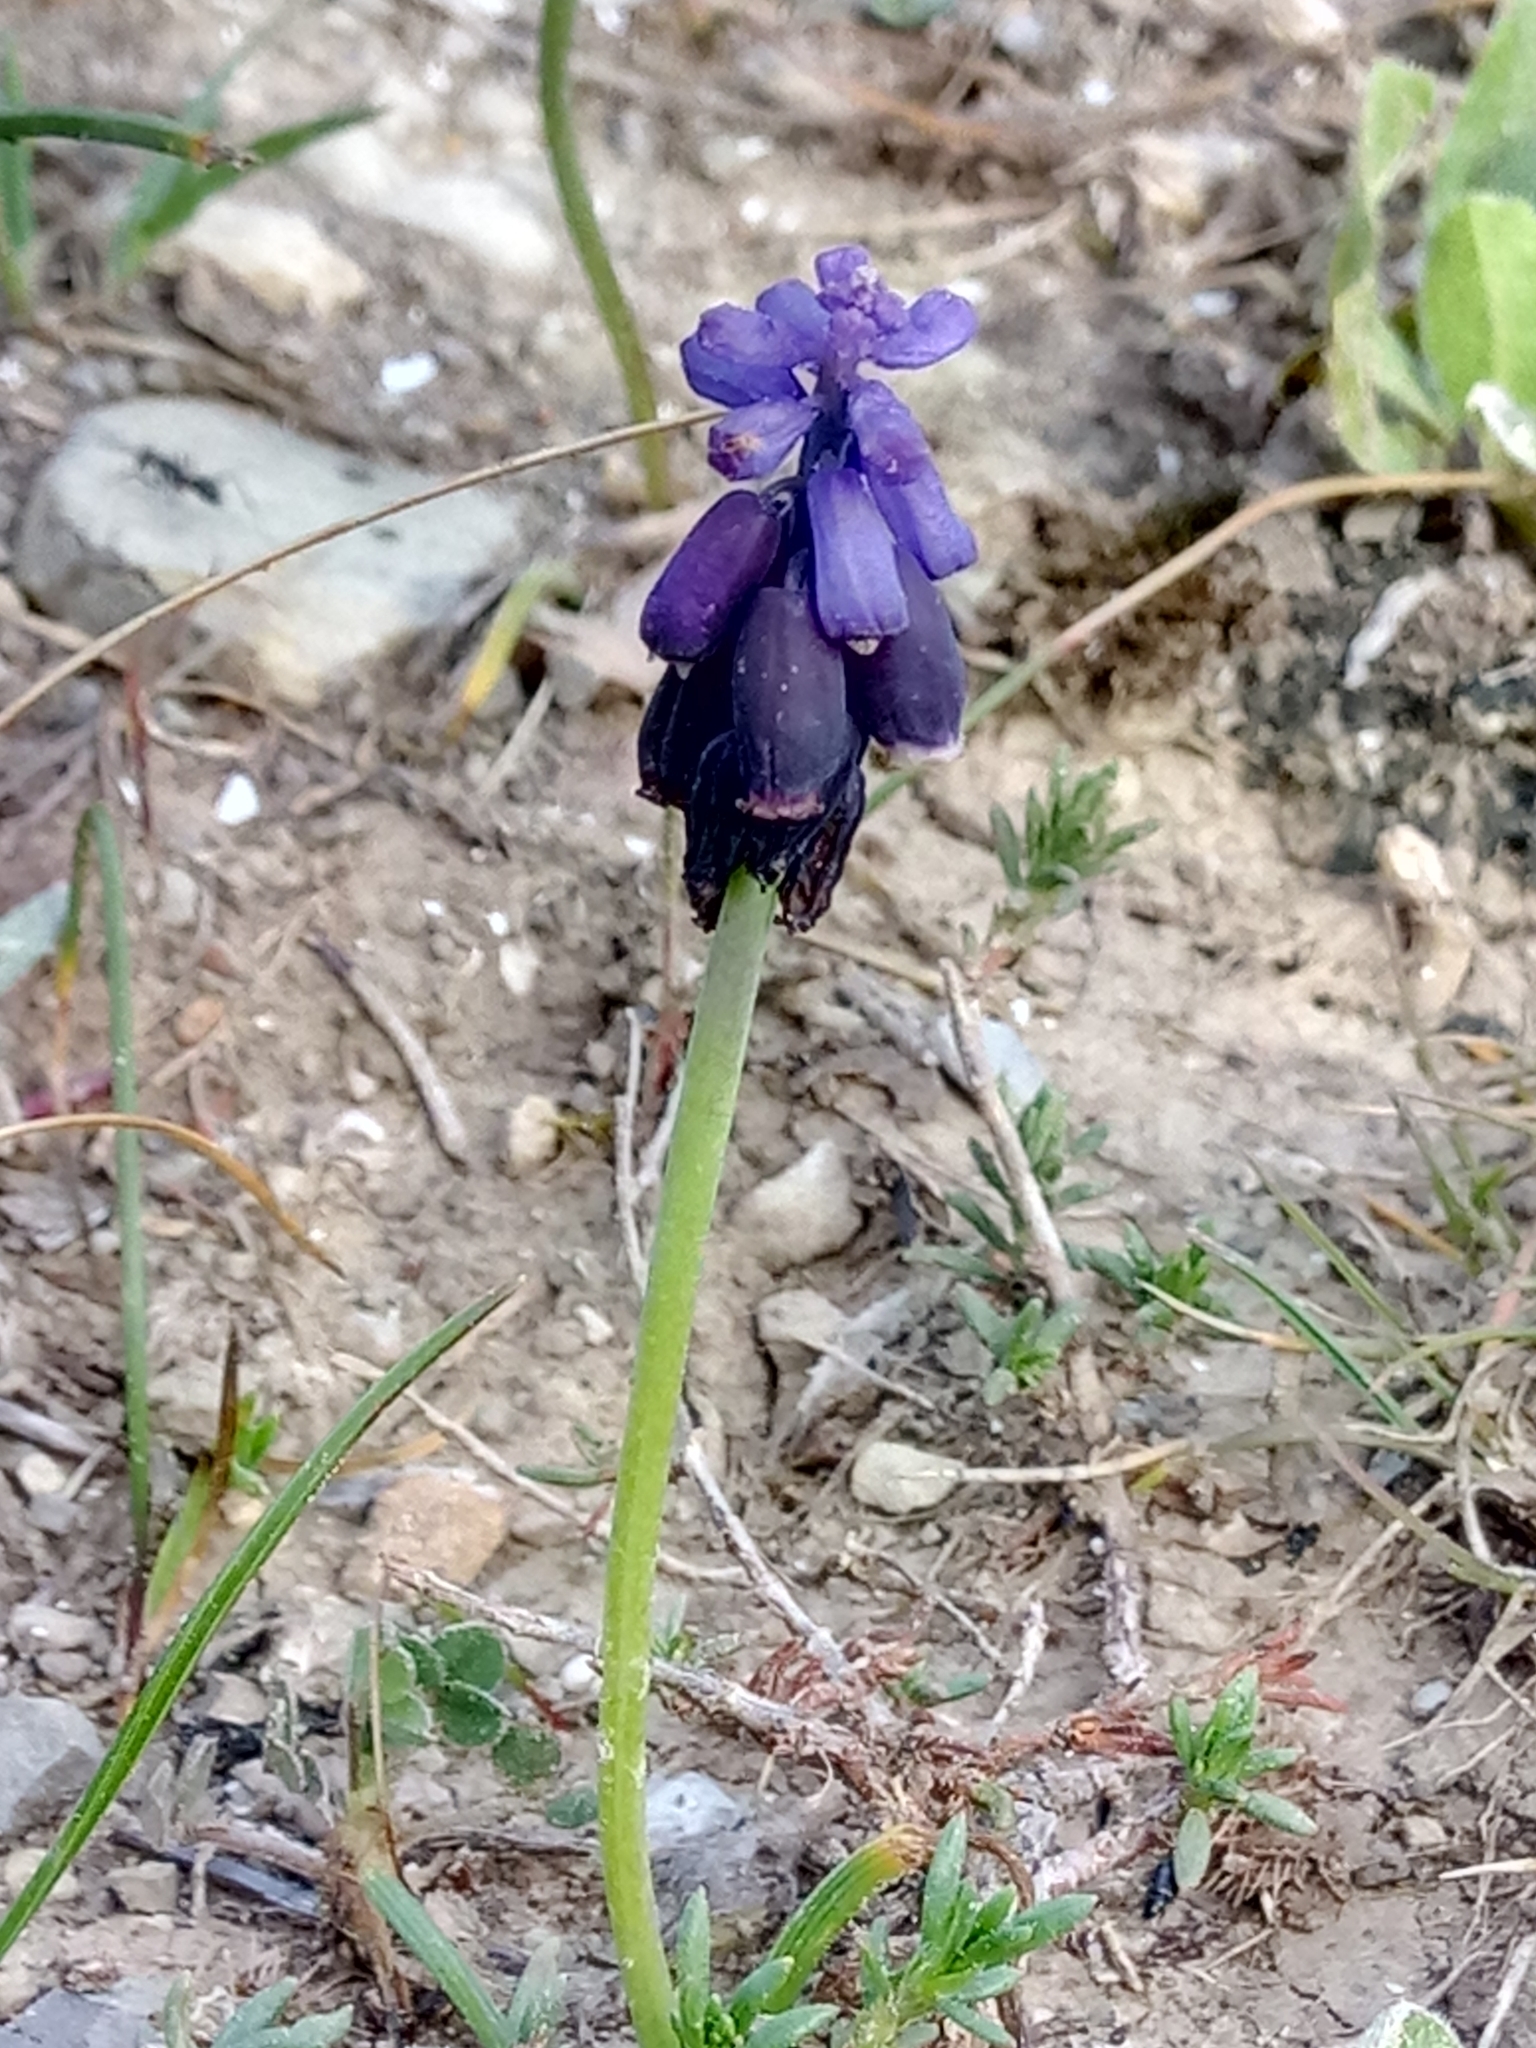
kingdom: Plantae
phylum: Tracheophyta
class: Liliopsida
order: Asparagales
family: Asparagaceae
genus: Muscari
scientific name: Muscari baeticum
